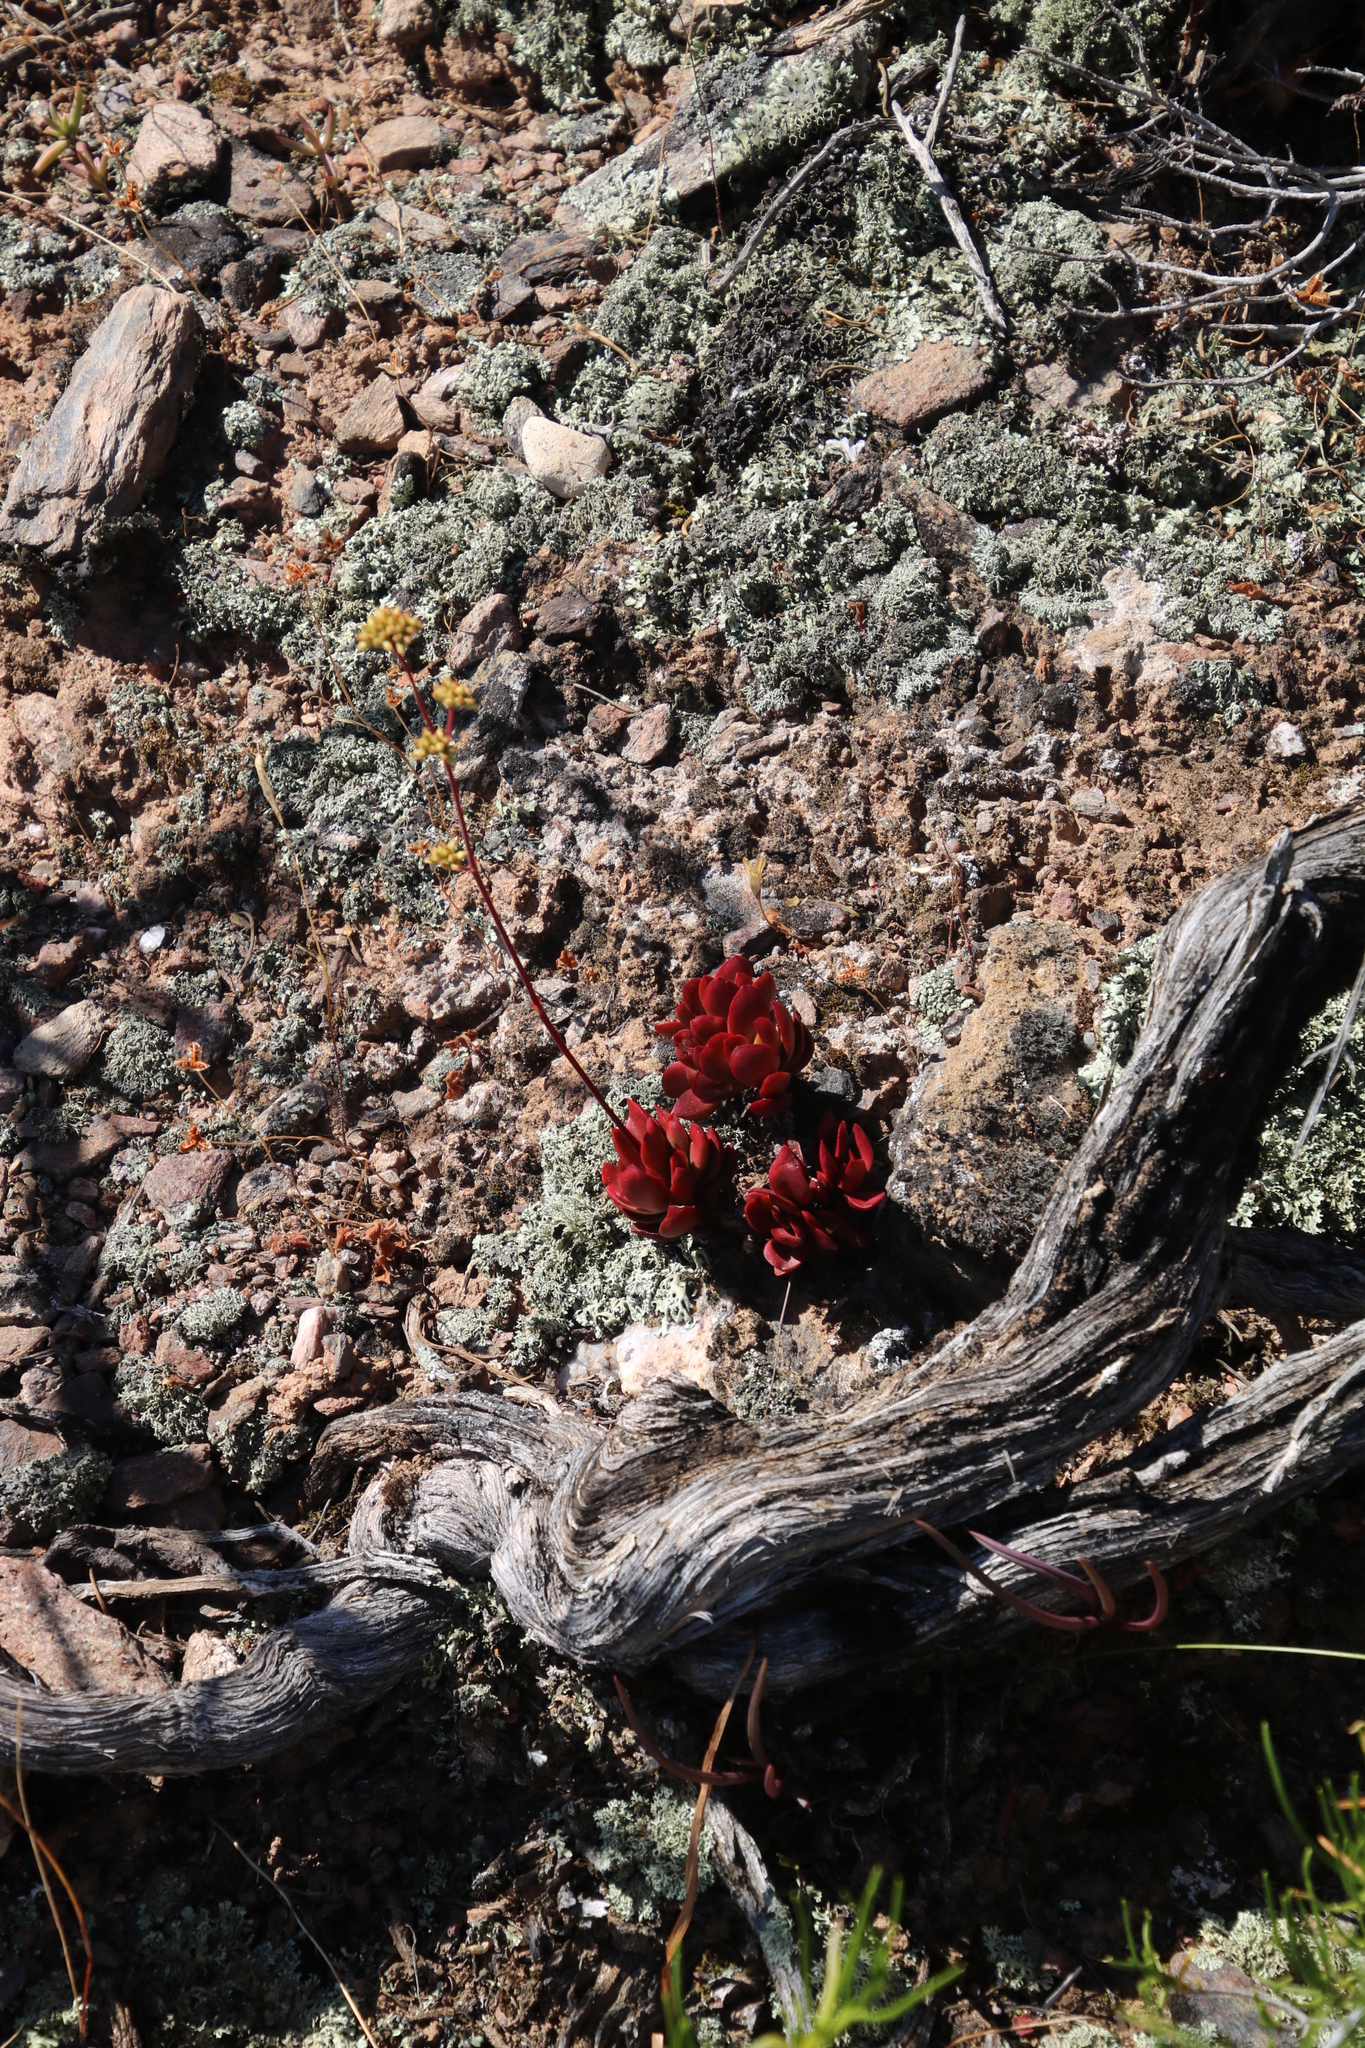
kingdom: Plantae
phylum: Tracheophyta
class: Magnoliopsida
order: Saxifragales
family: Crassulaceae
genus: Crassula
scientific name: Crassula atropurpurea
